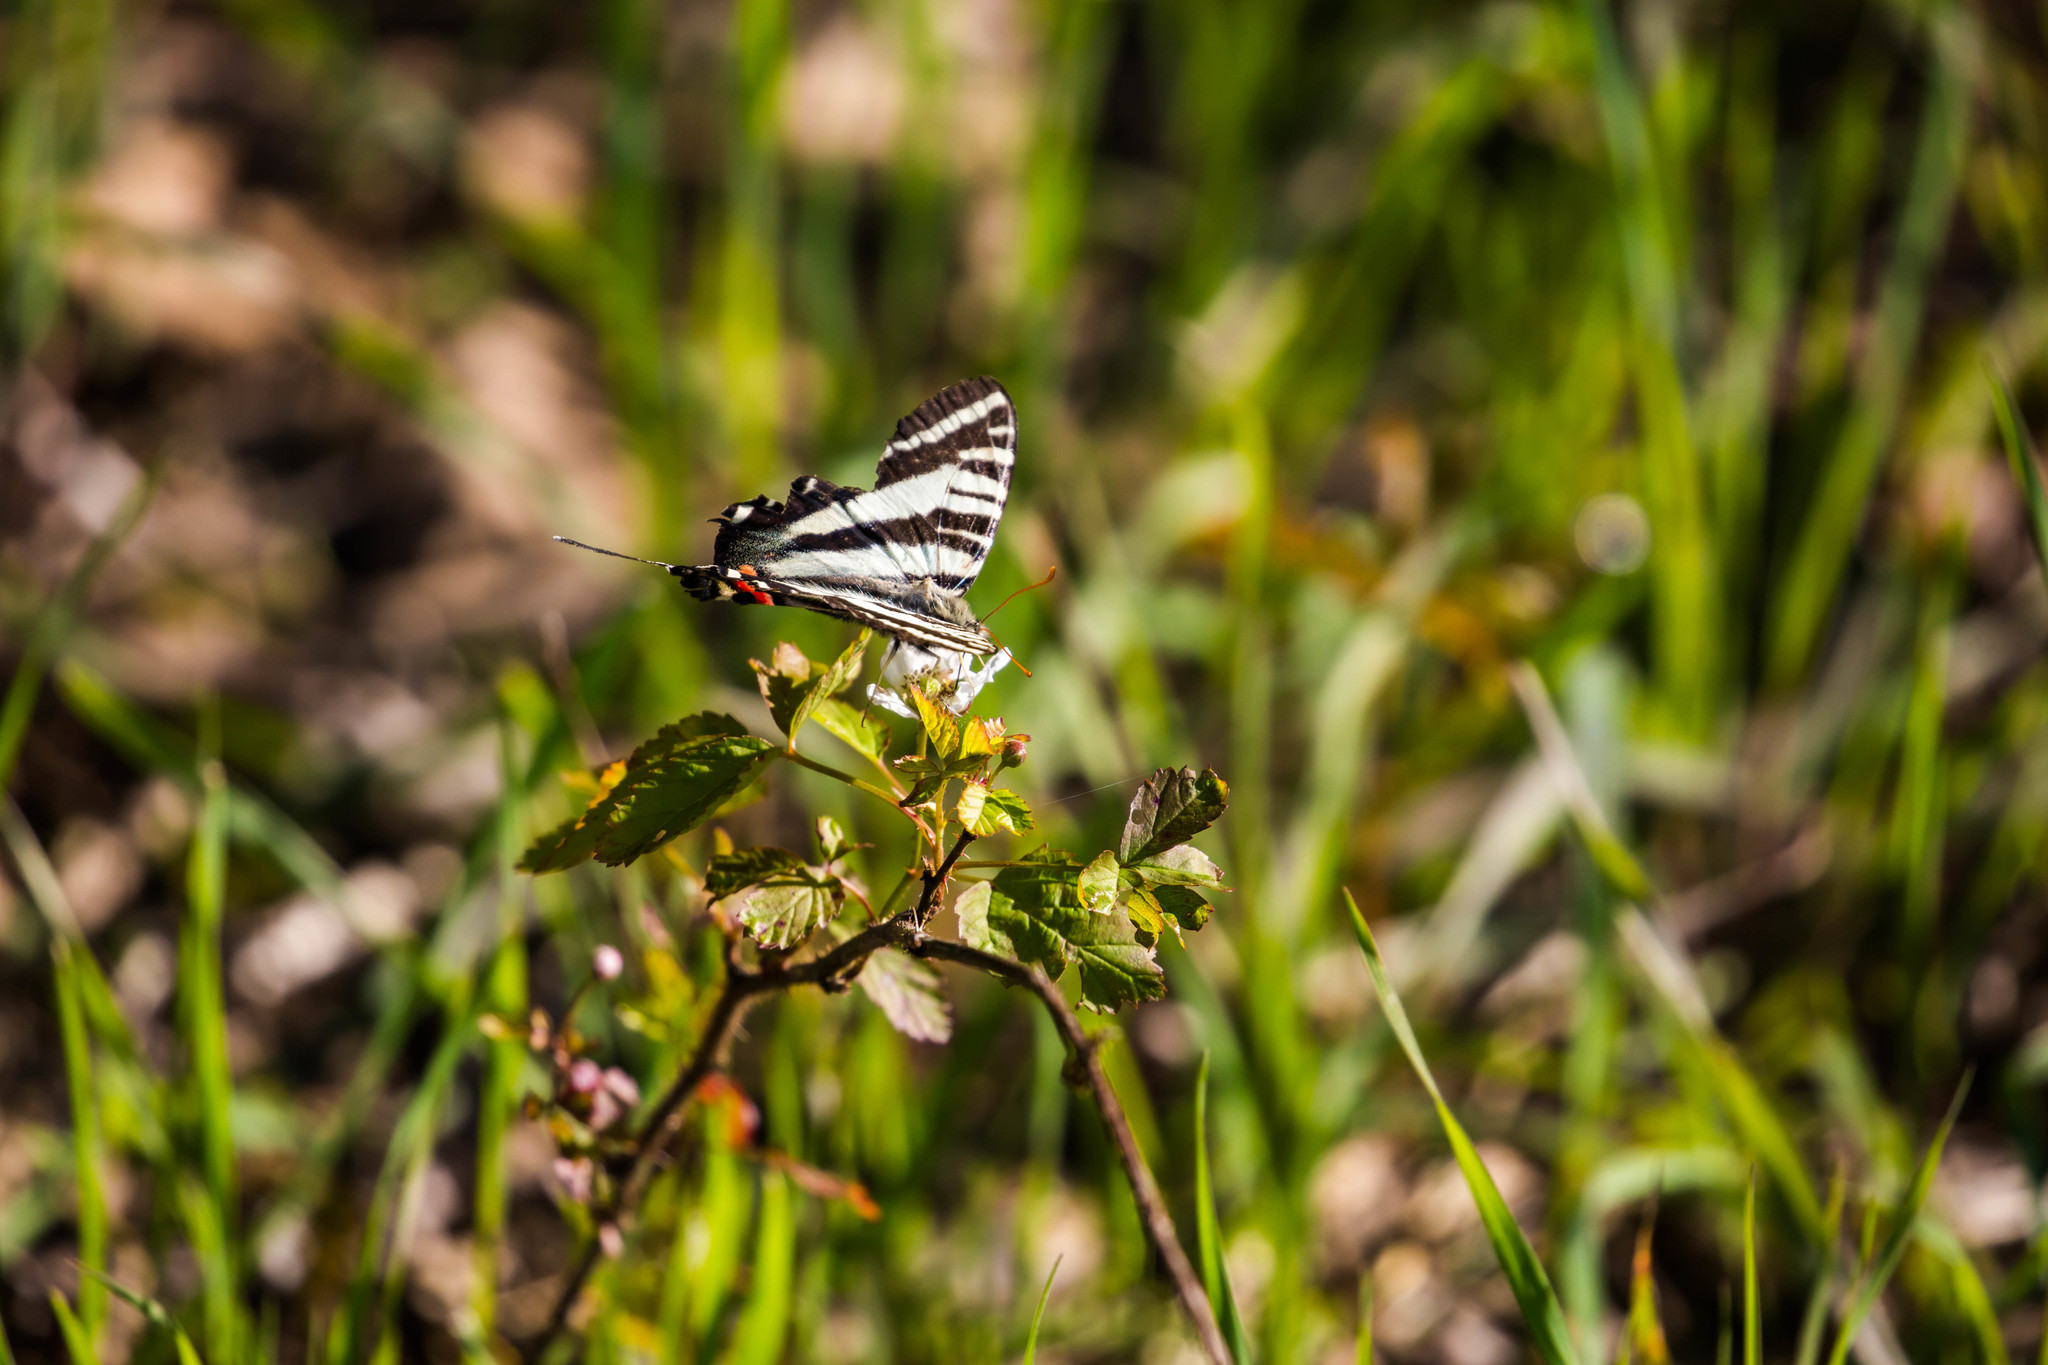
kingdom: Animalia
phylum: Arthropoda
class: Insecta
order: Lepidoptera
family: Papilionidae
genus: Protographium
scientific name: Protographium marcellus
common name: Zebra swallowtail
